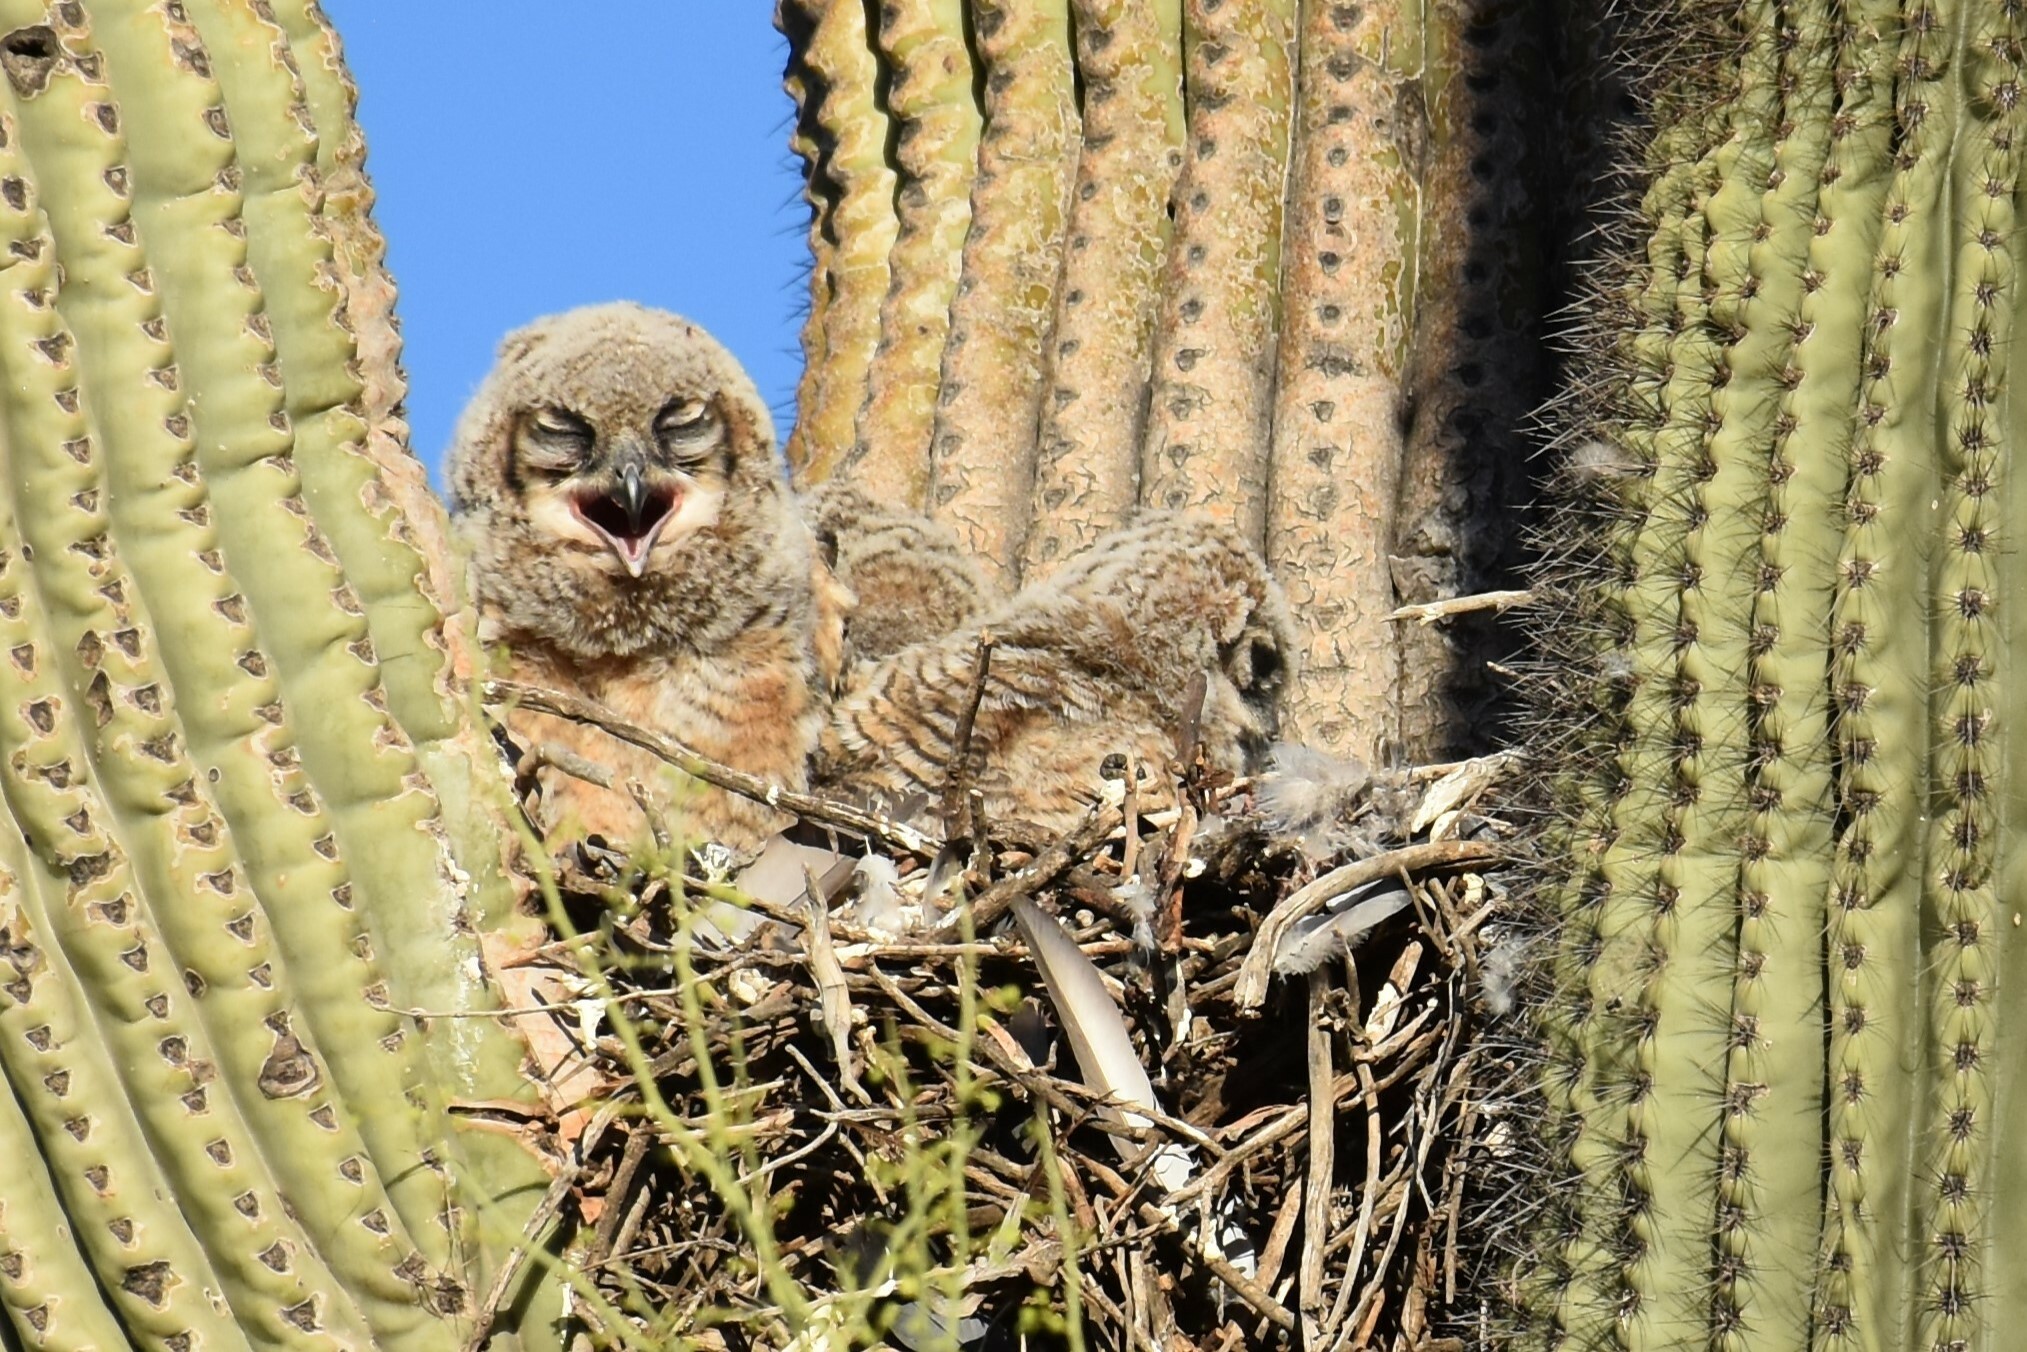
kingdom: Animalia
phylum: Chordata
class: Aves
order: Strigiformes
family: Strigidae
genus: Bubo
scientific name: Bubo virginianus
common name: Great horned owl
